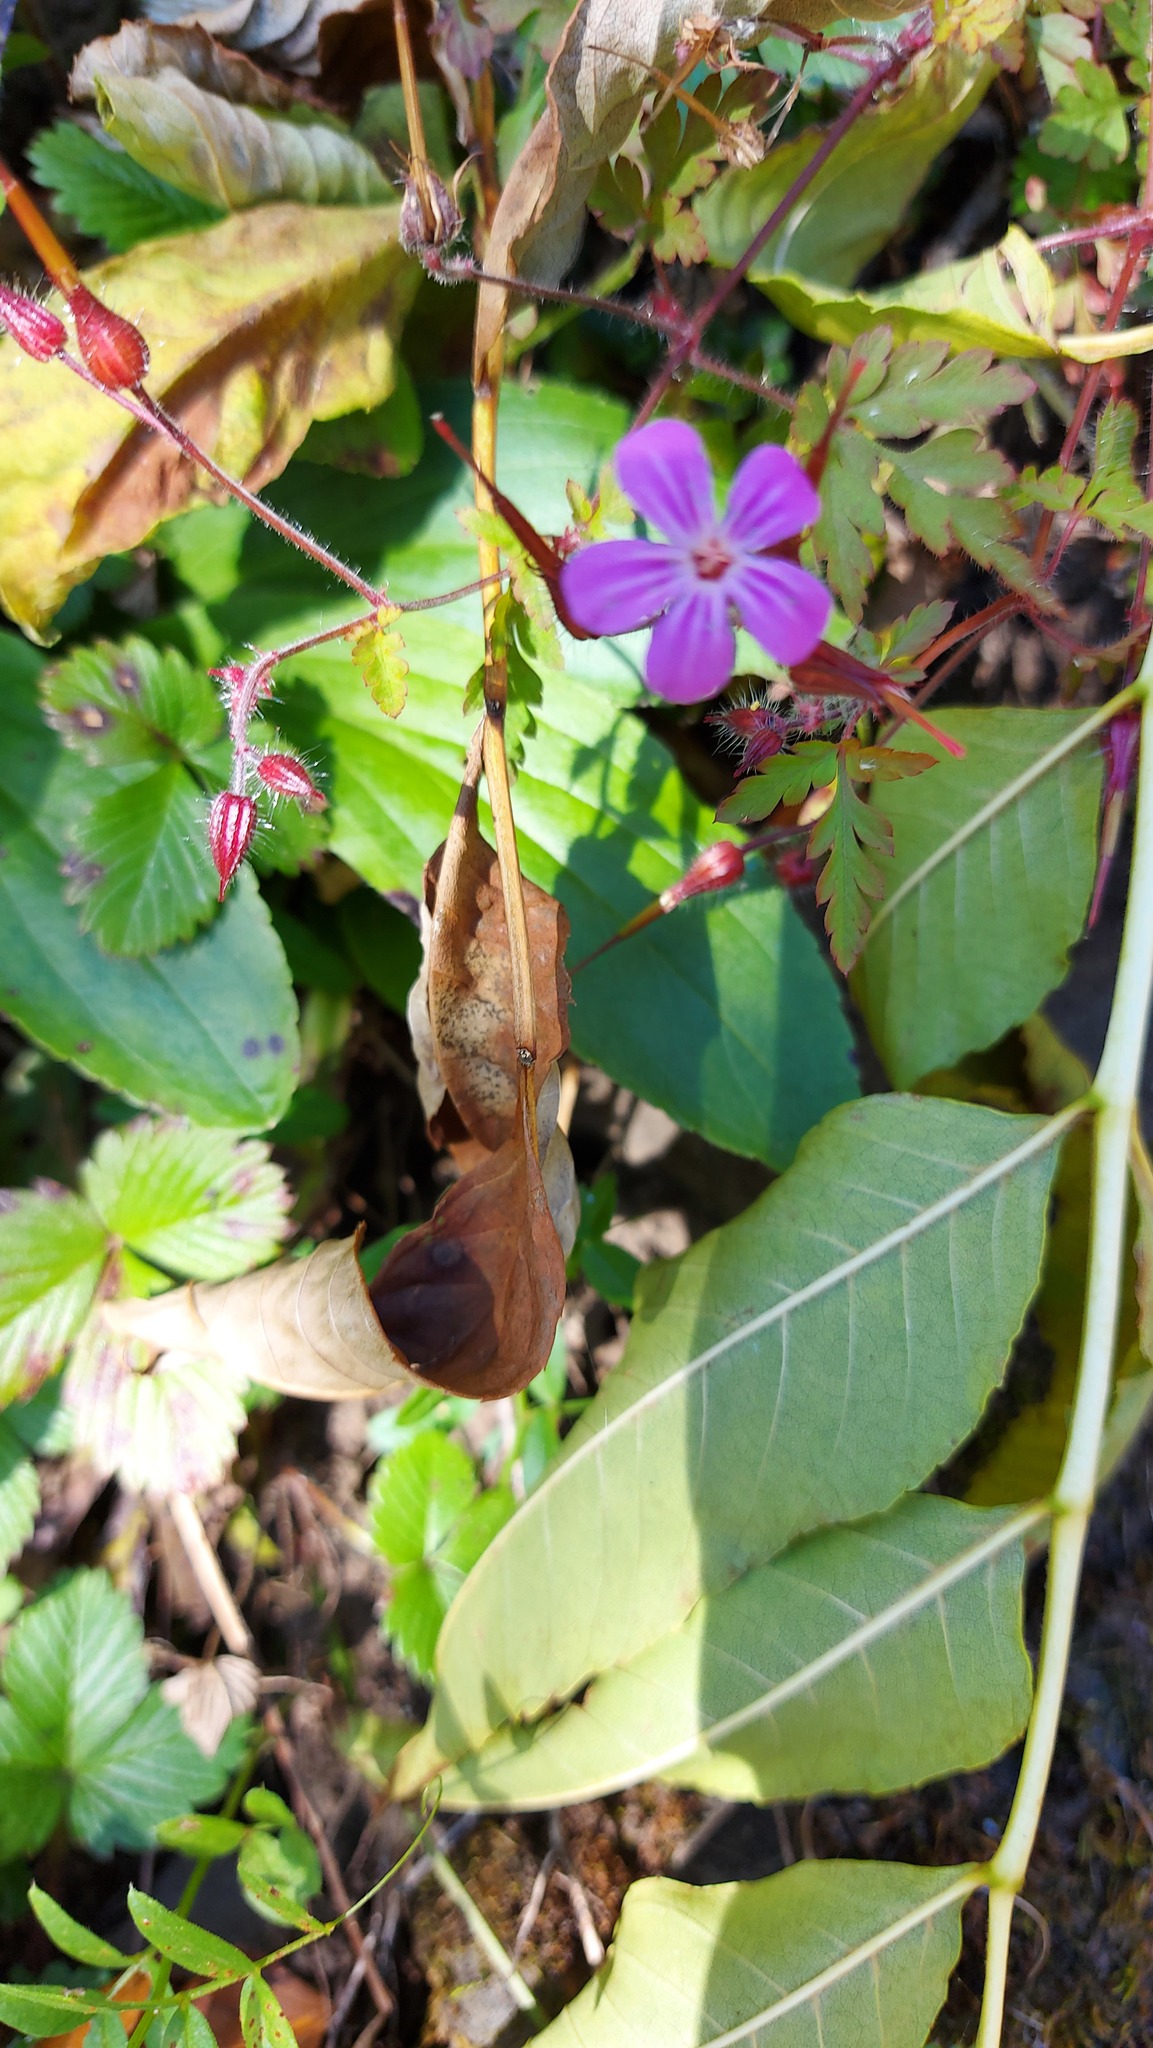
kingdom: Plantae
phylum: Tracheophyta
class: Magnoliopsida
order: Geraniales
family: Geraniaceae
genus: Geranium
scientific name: Geranium robertianum
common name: Herb-robert
